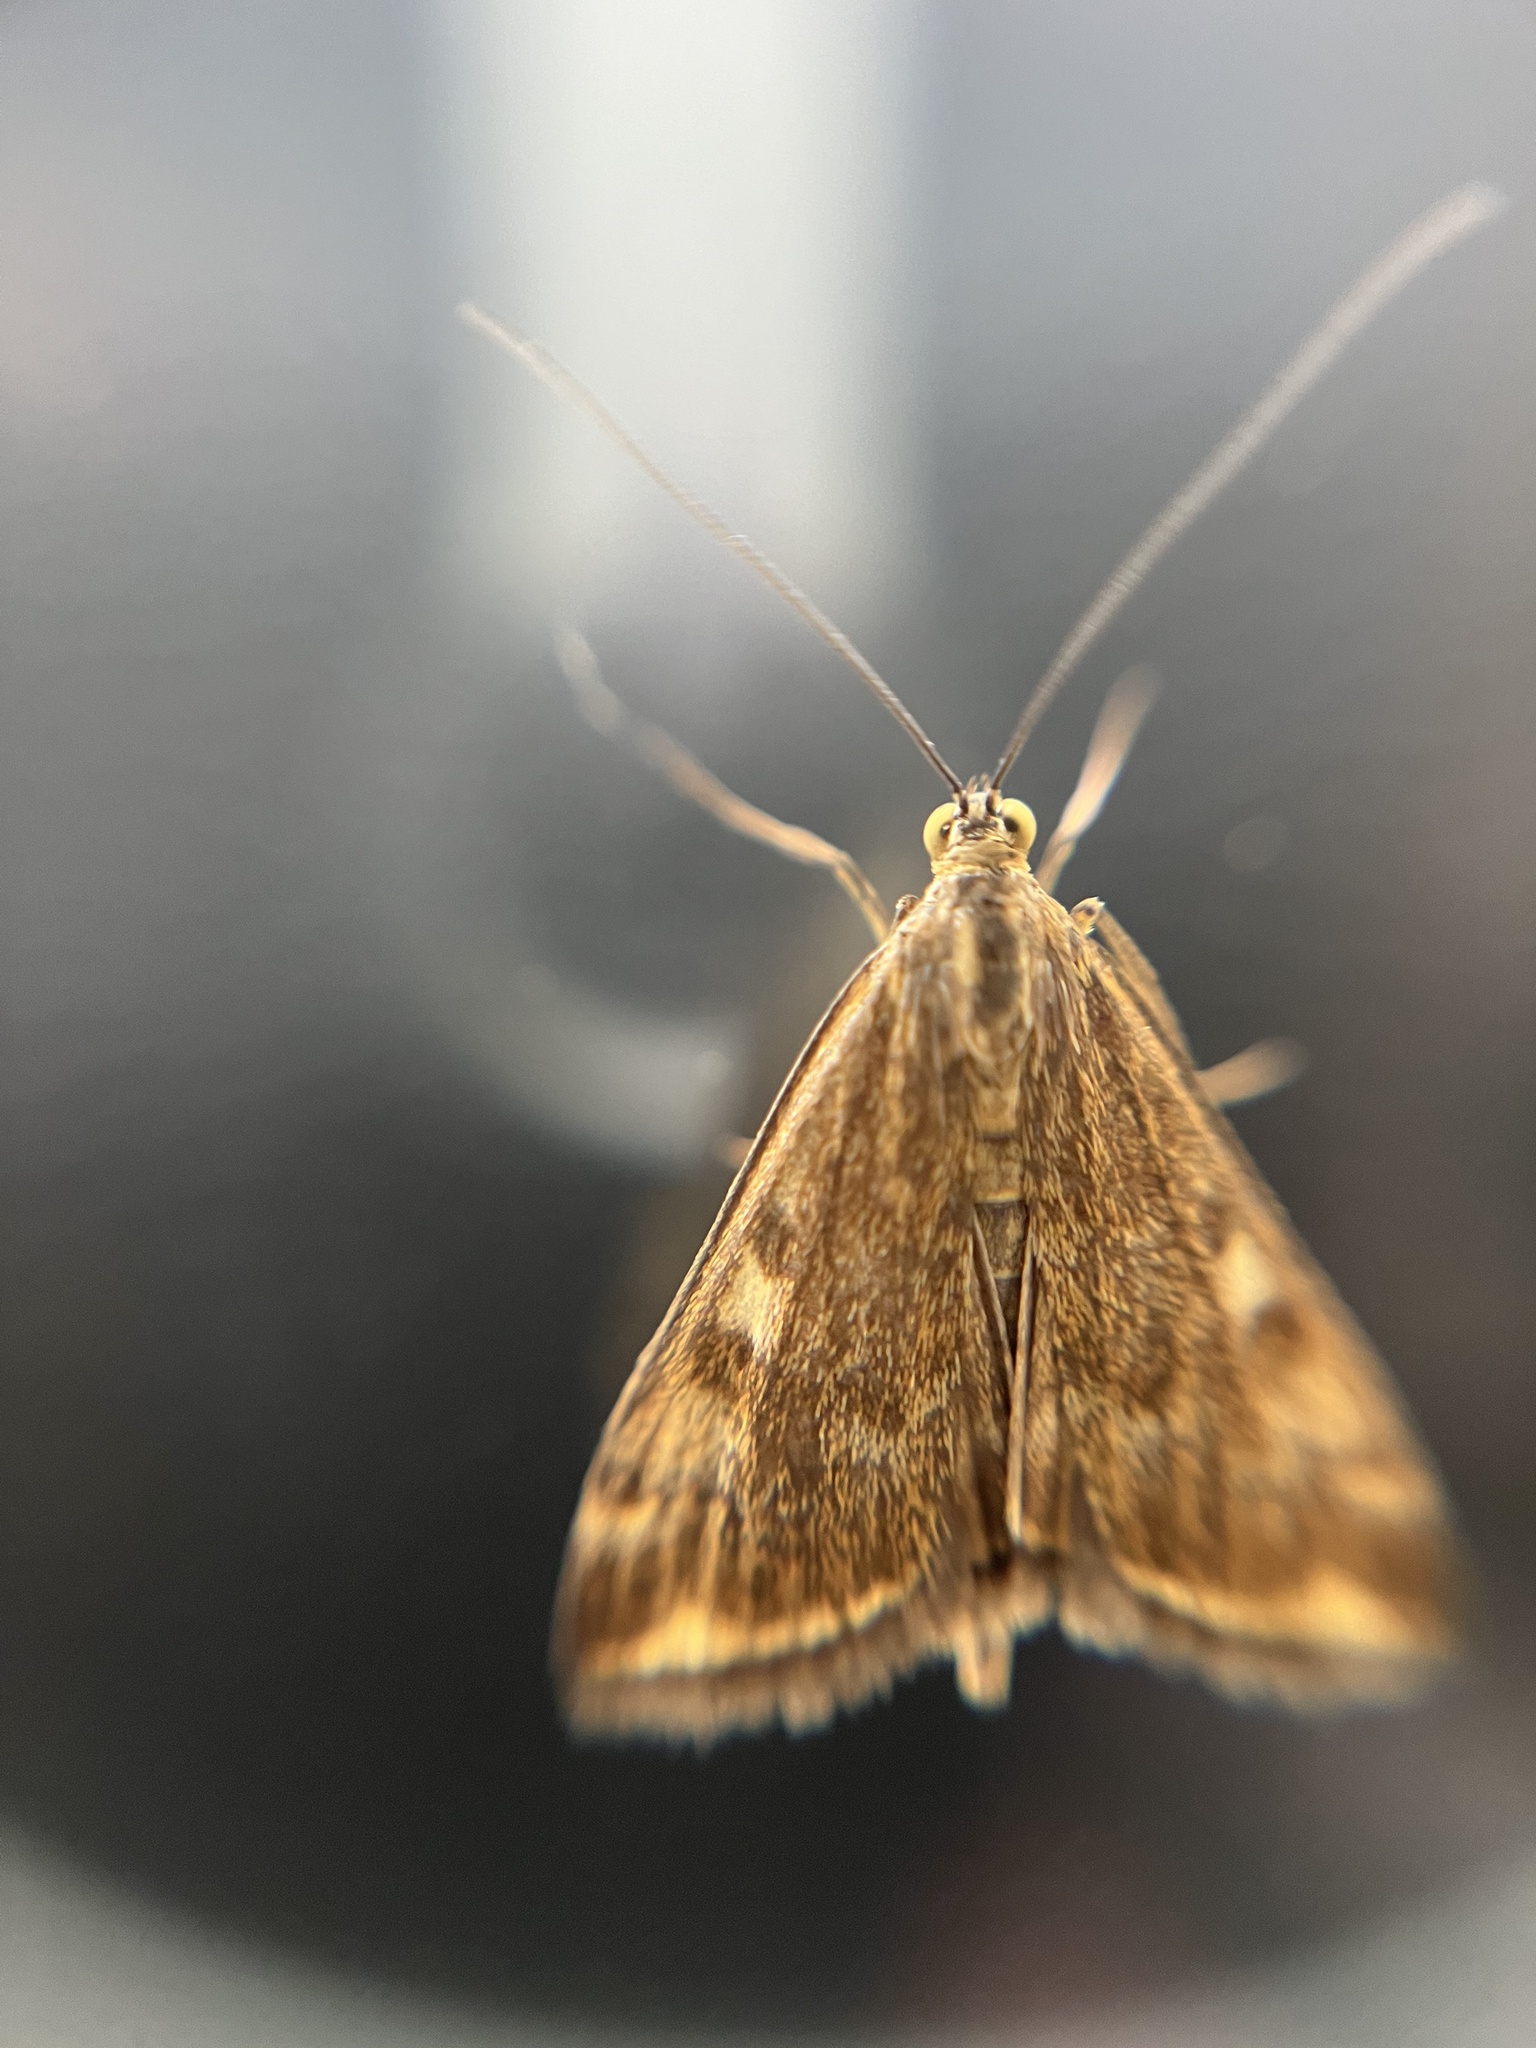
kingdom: Animalia
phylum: Arthropoda
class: Insecta
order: Lepidoptera
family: Crambidae
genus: Loxostege
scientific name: Loxostege sticticalis
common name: Crambid moth
